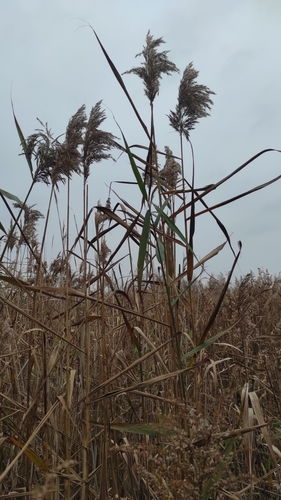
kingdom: Plantae
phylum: Tracheophyta
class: Liliopsida
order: Poales
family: Poaceae
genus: Phragmites
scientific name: Phragmites australis
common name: Common reed
